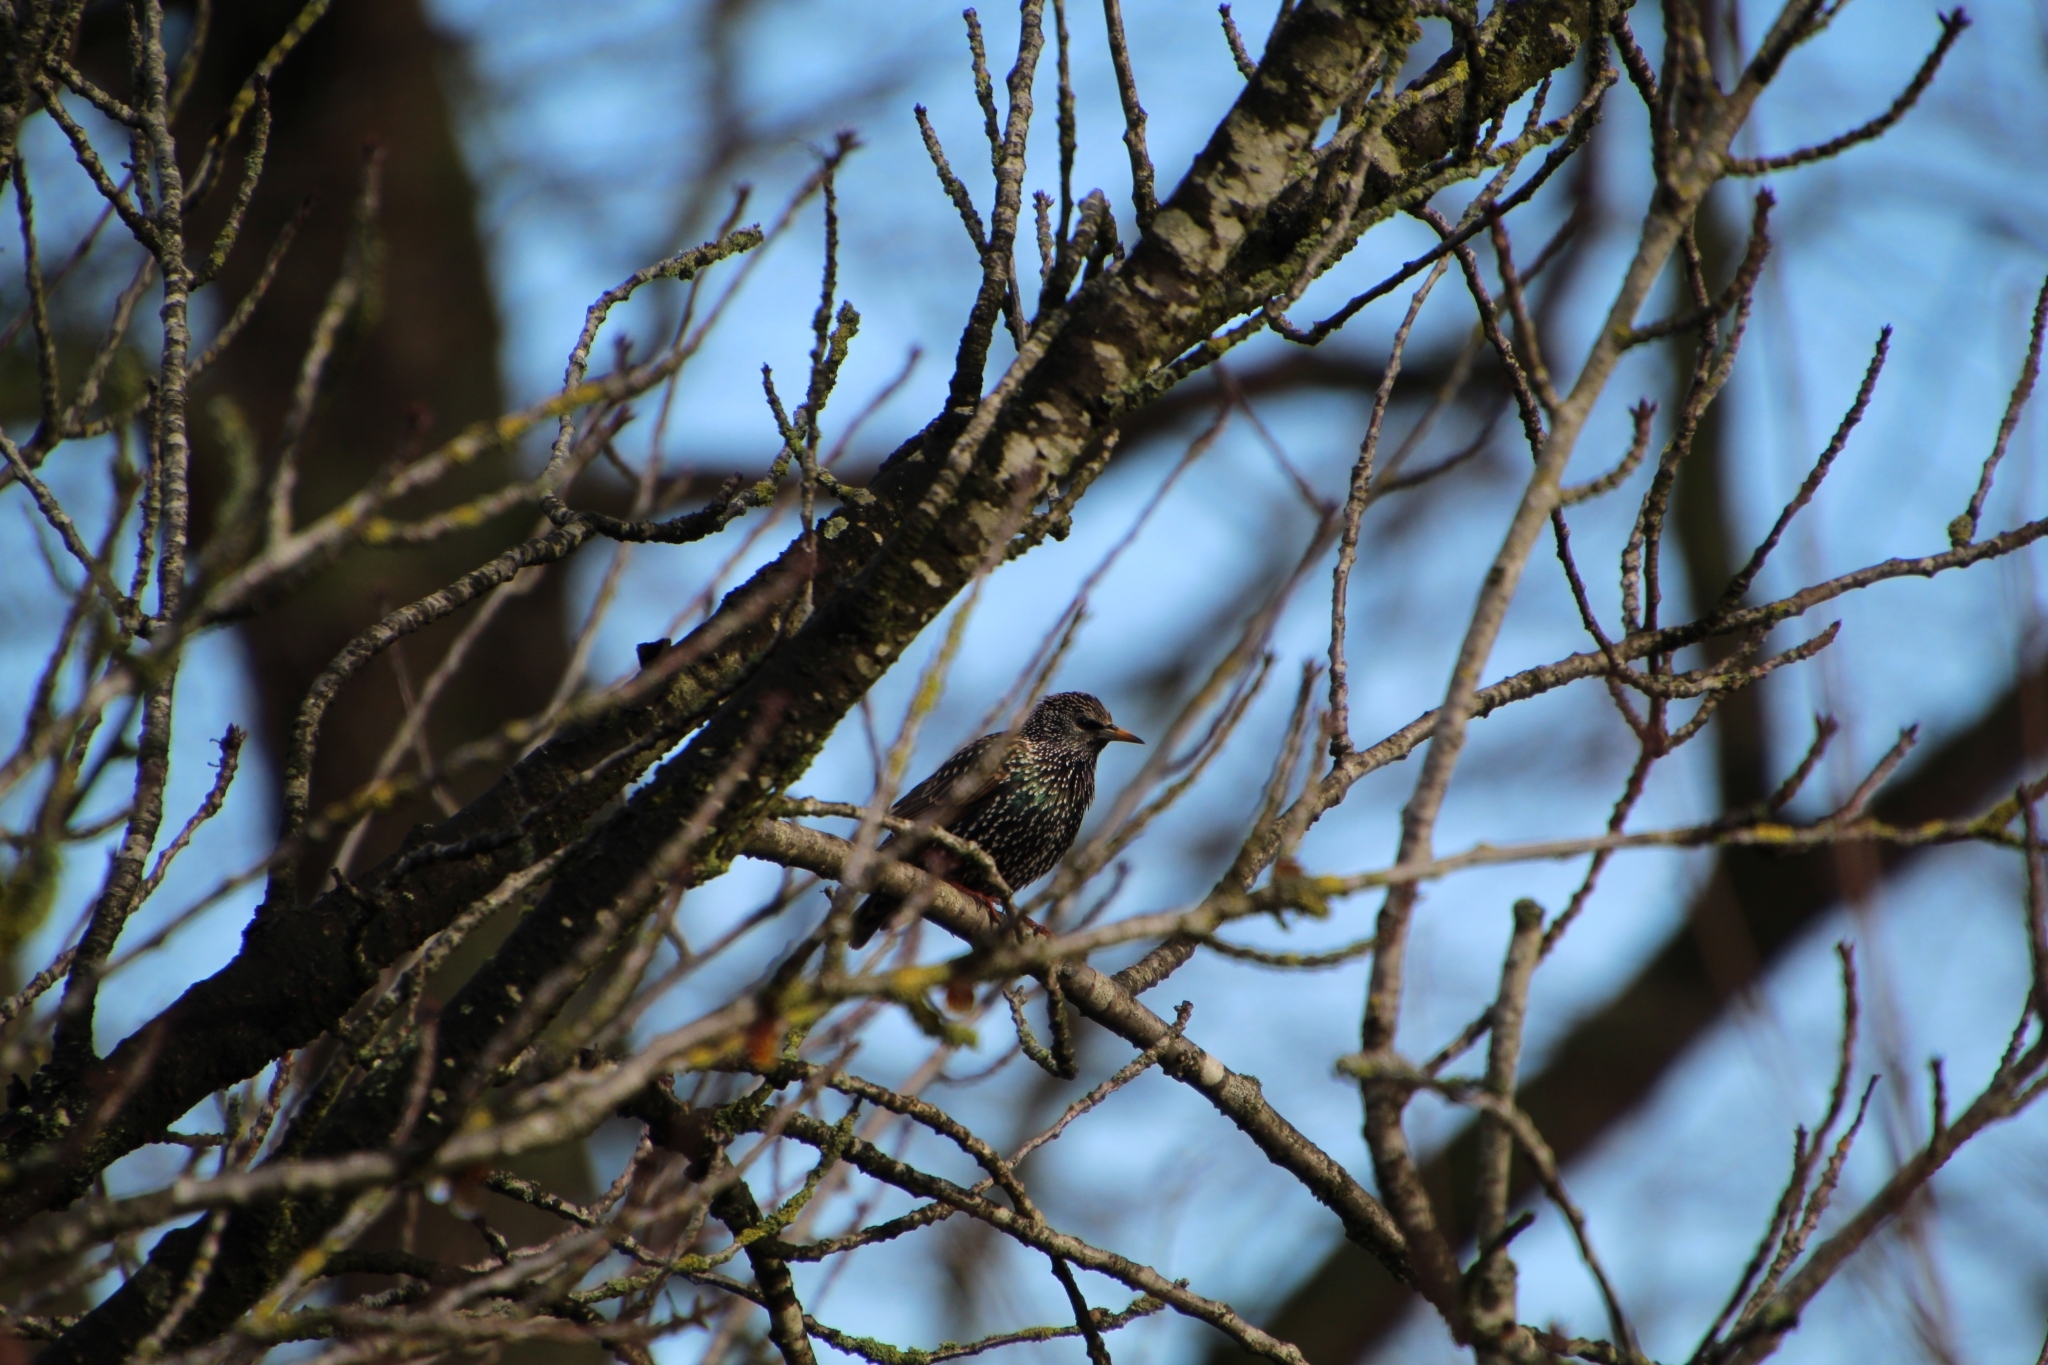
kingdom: Animalia
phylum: Chordata
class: Aves
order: Passeriformes
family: Sturnidae
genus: Sturnus
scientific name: Sturnus vulgaris
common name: Common starling
